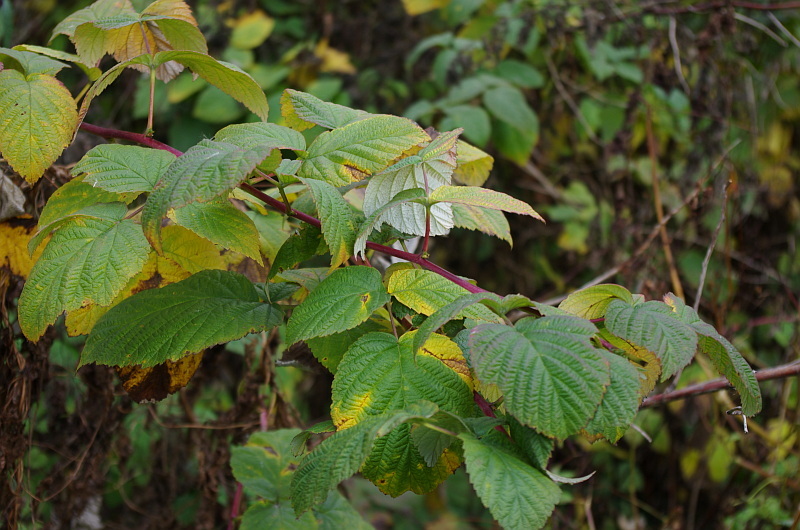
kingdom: Plantae
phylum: Tracheophyta
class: Magnoliopsida
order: Rosales
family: Rosaceae
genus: Rubus
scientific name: Rubus idaeus
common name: Raspberry
